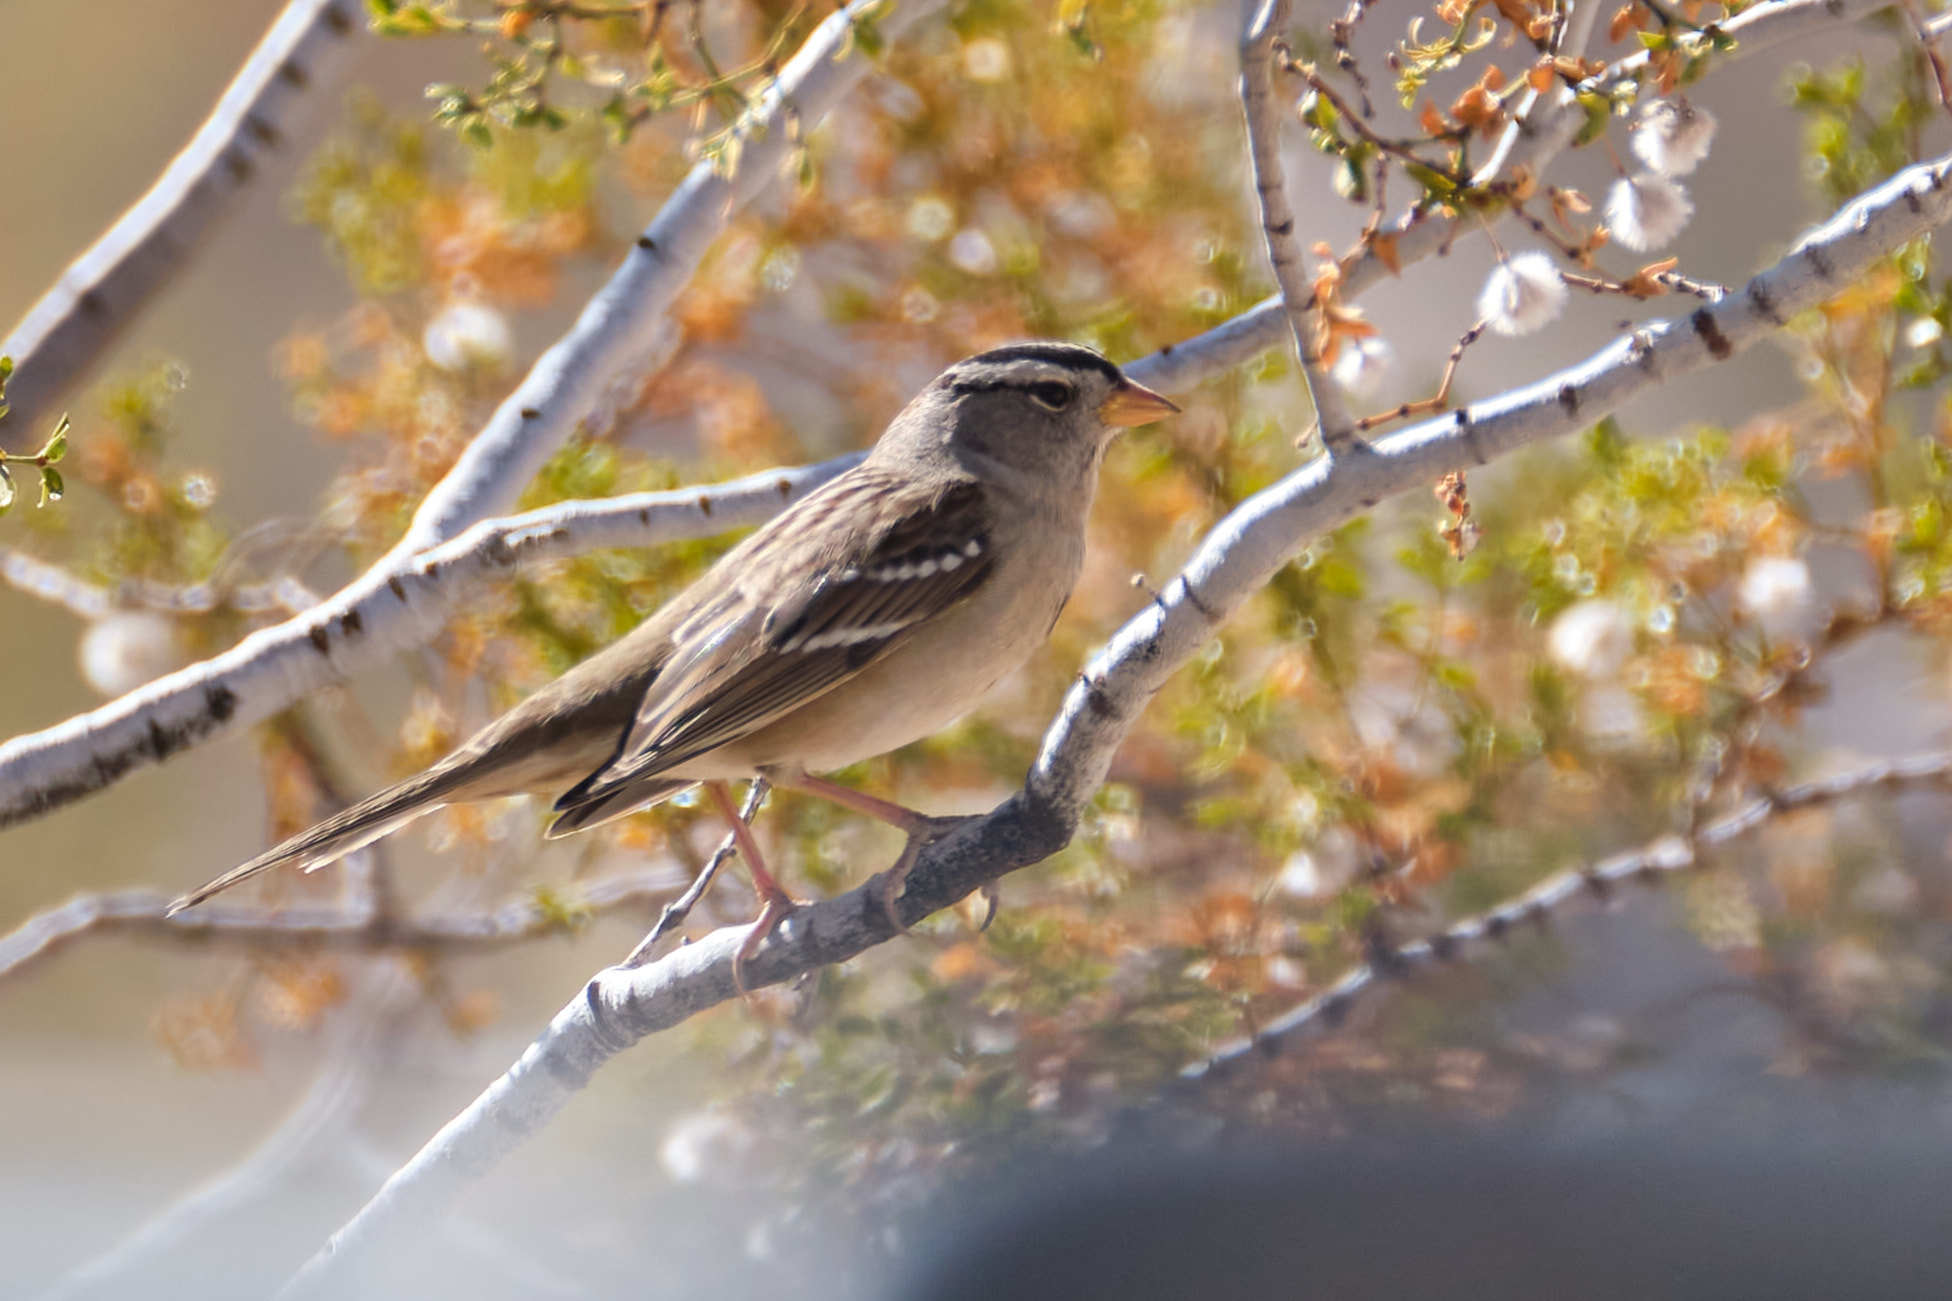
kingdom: Animalia
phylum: Chordata
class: Aves
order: Passeriformes
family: Passerellidae
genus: Zonotrichia
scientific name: Zonotrichia leucophrys
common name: White-crowned sparrow
